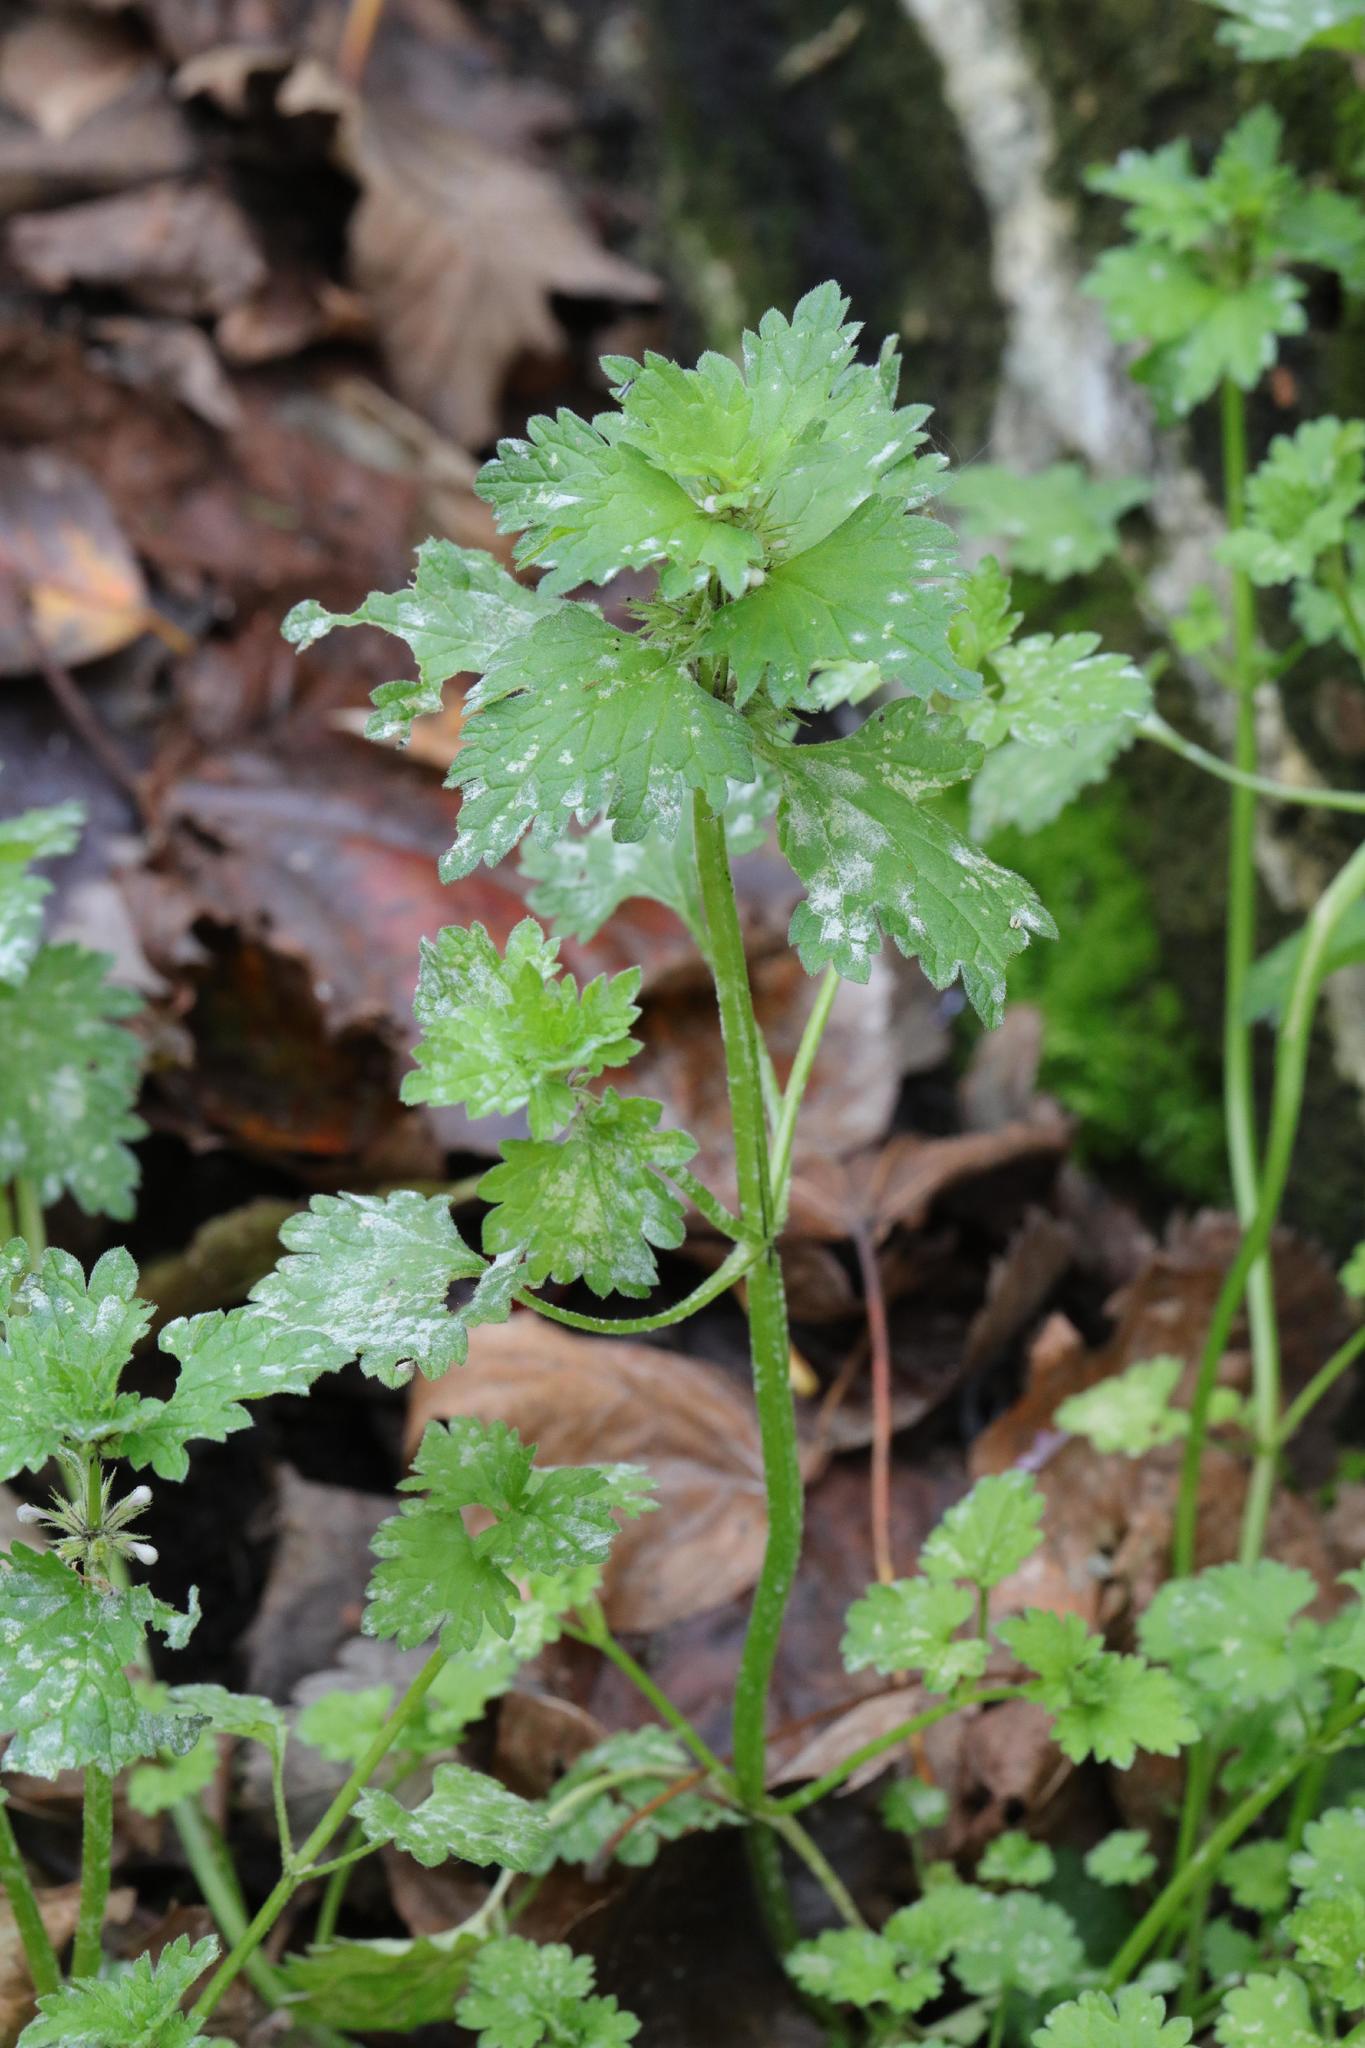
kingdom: Plantae
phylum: Tracheophyta
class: Magnoliopsida
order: Rosales
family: Urticaceae
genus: Urtica
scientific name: Urtica dioica
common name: Common nettle
